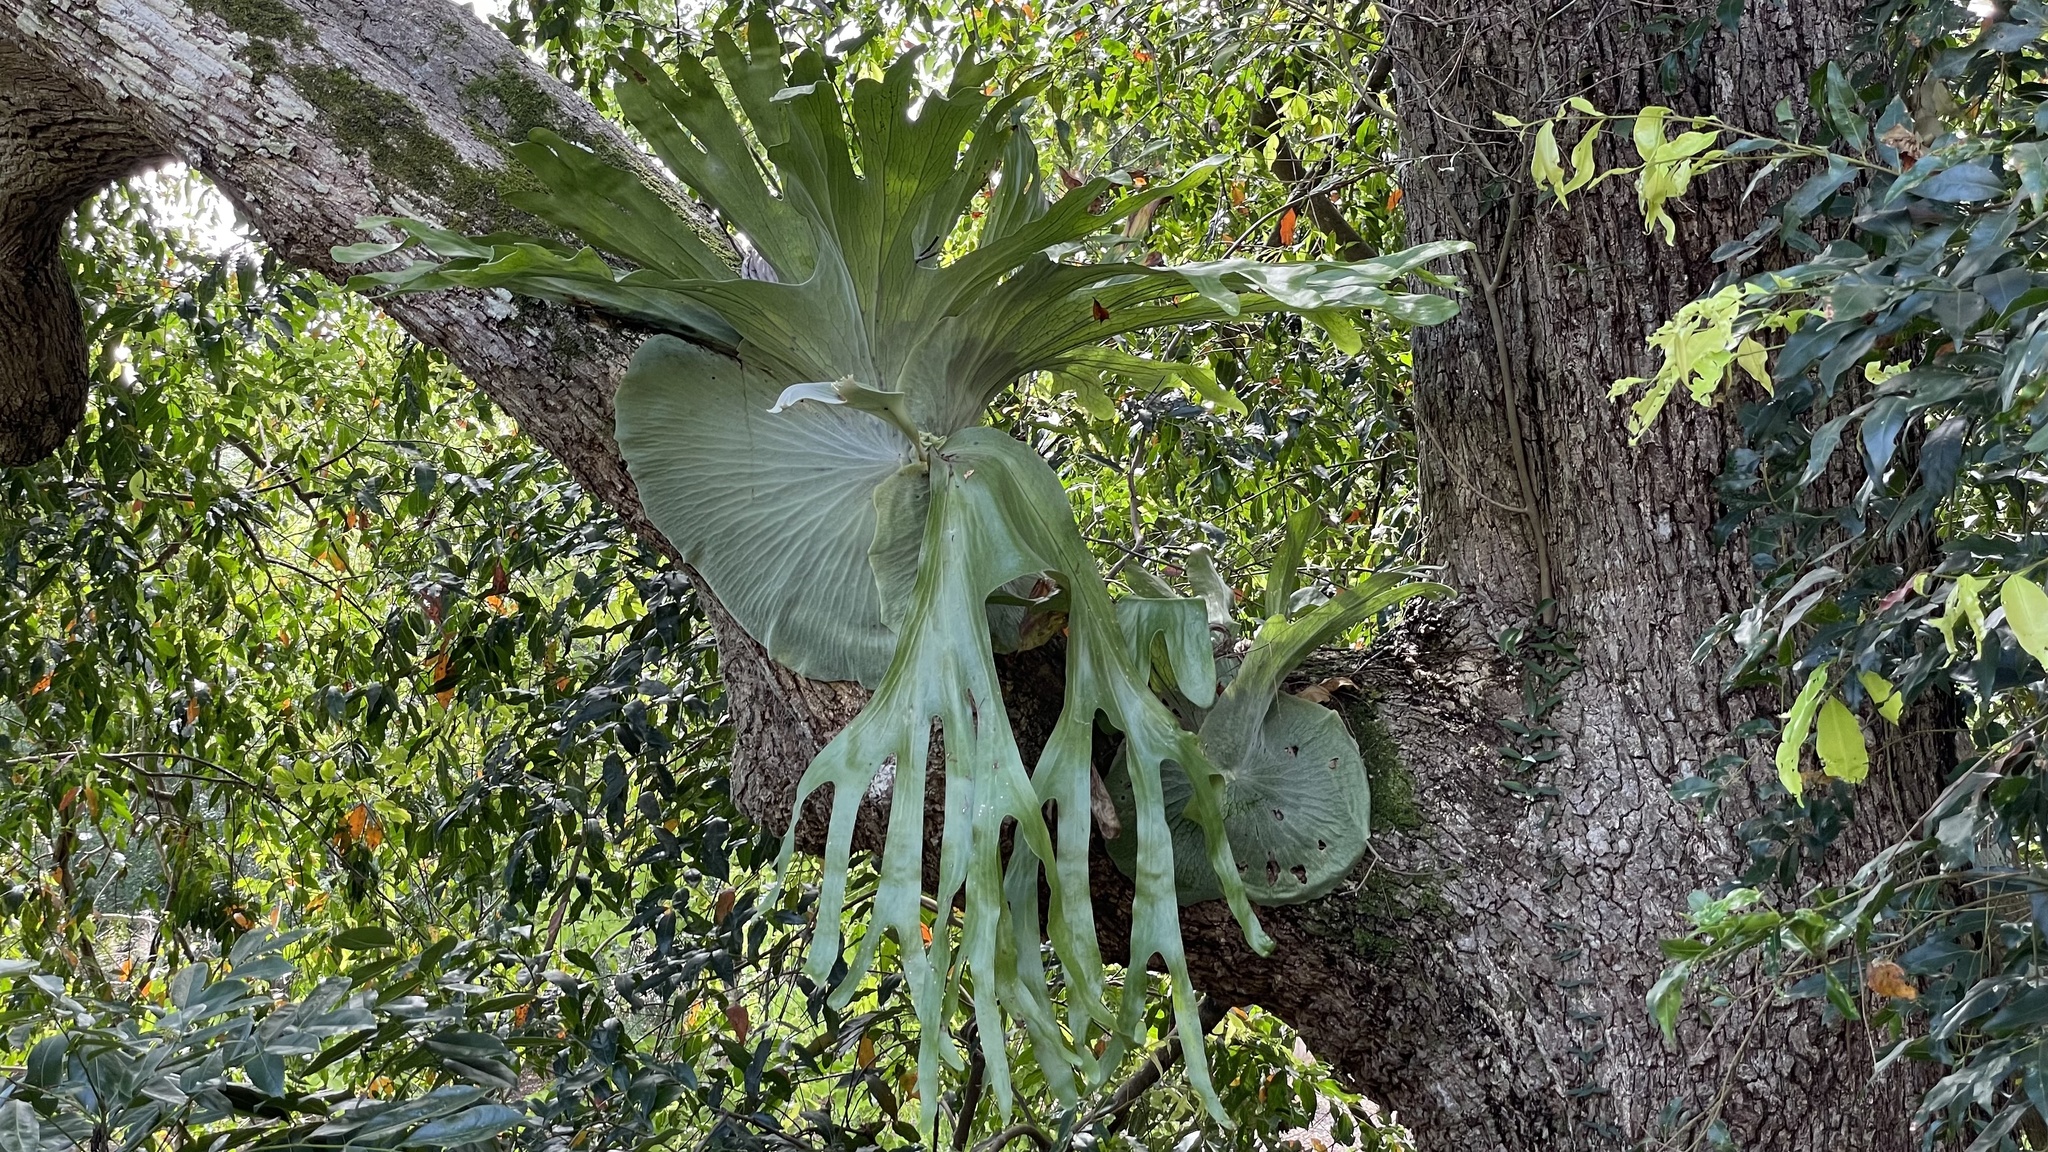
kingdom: Plantae
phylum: Tracheophyta
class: Polypodiopsida
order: Polypodiales
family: Polypodiaceae
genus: Platycerium
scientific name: Platycerium superbum
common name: Staghorn fern
